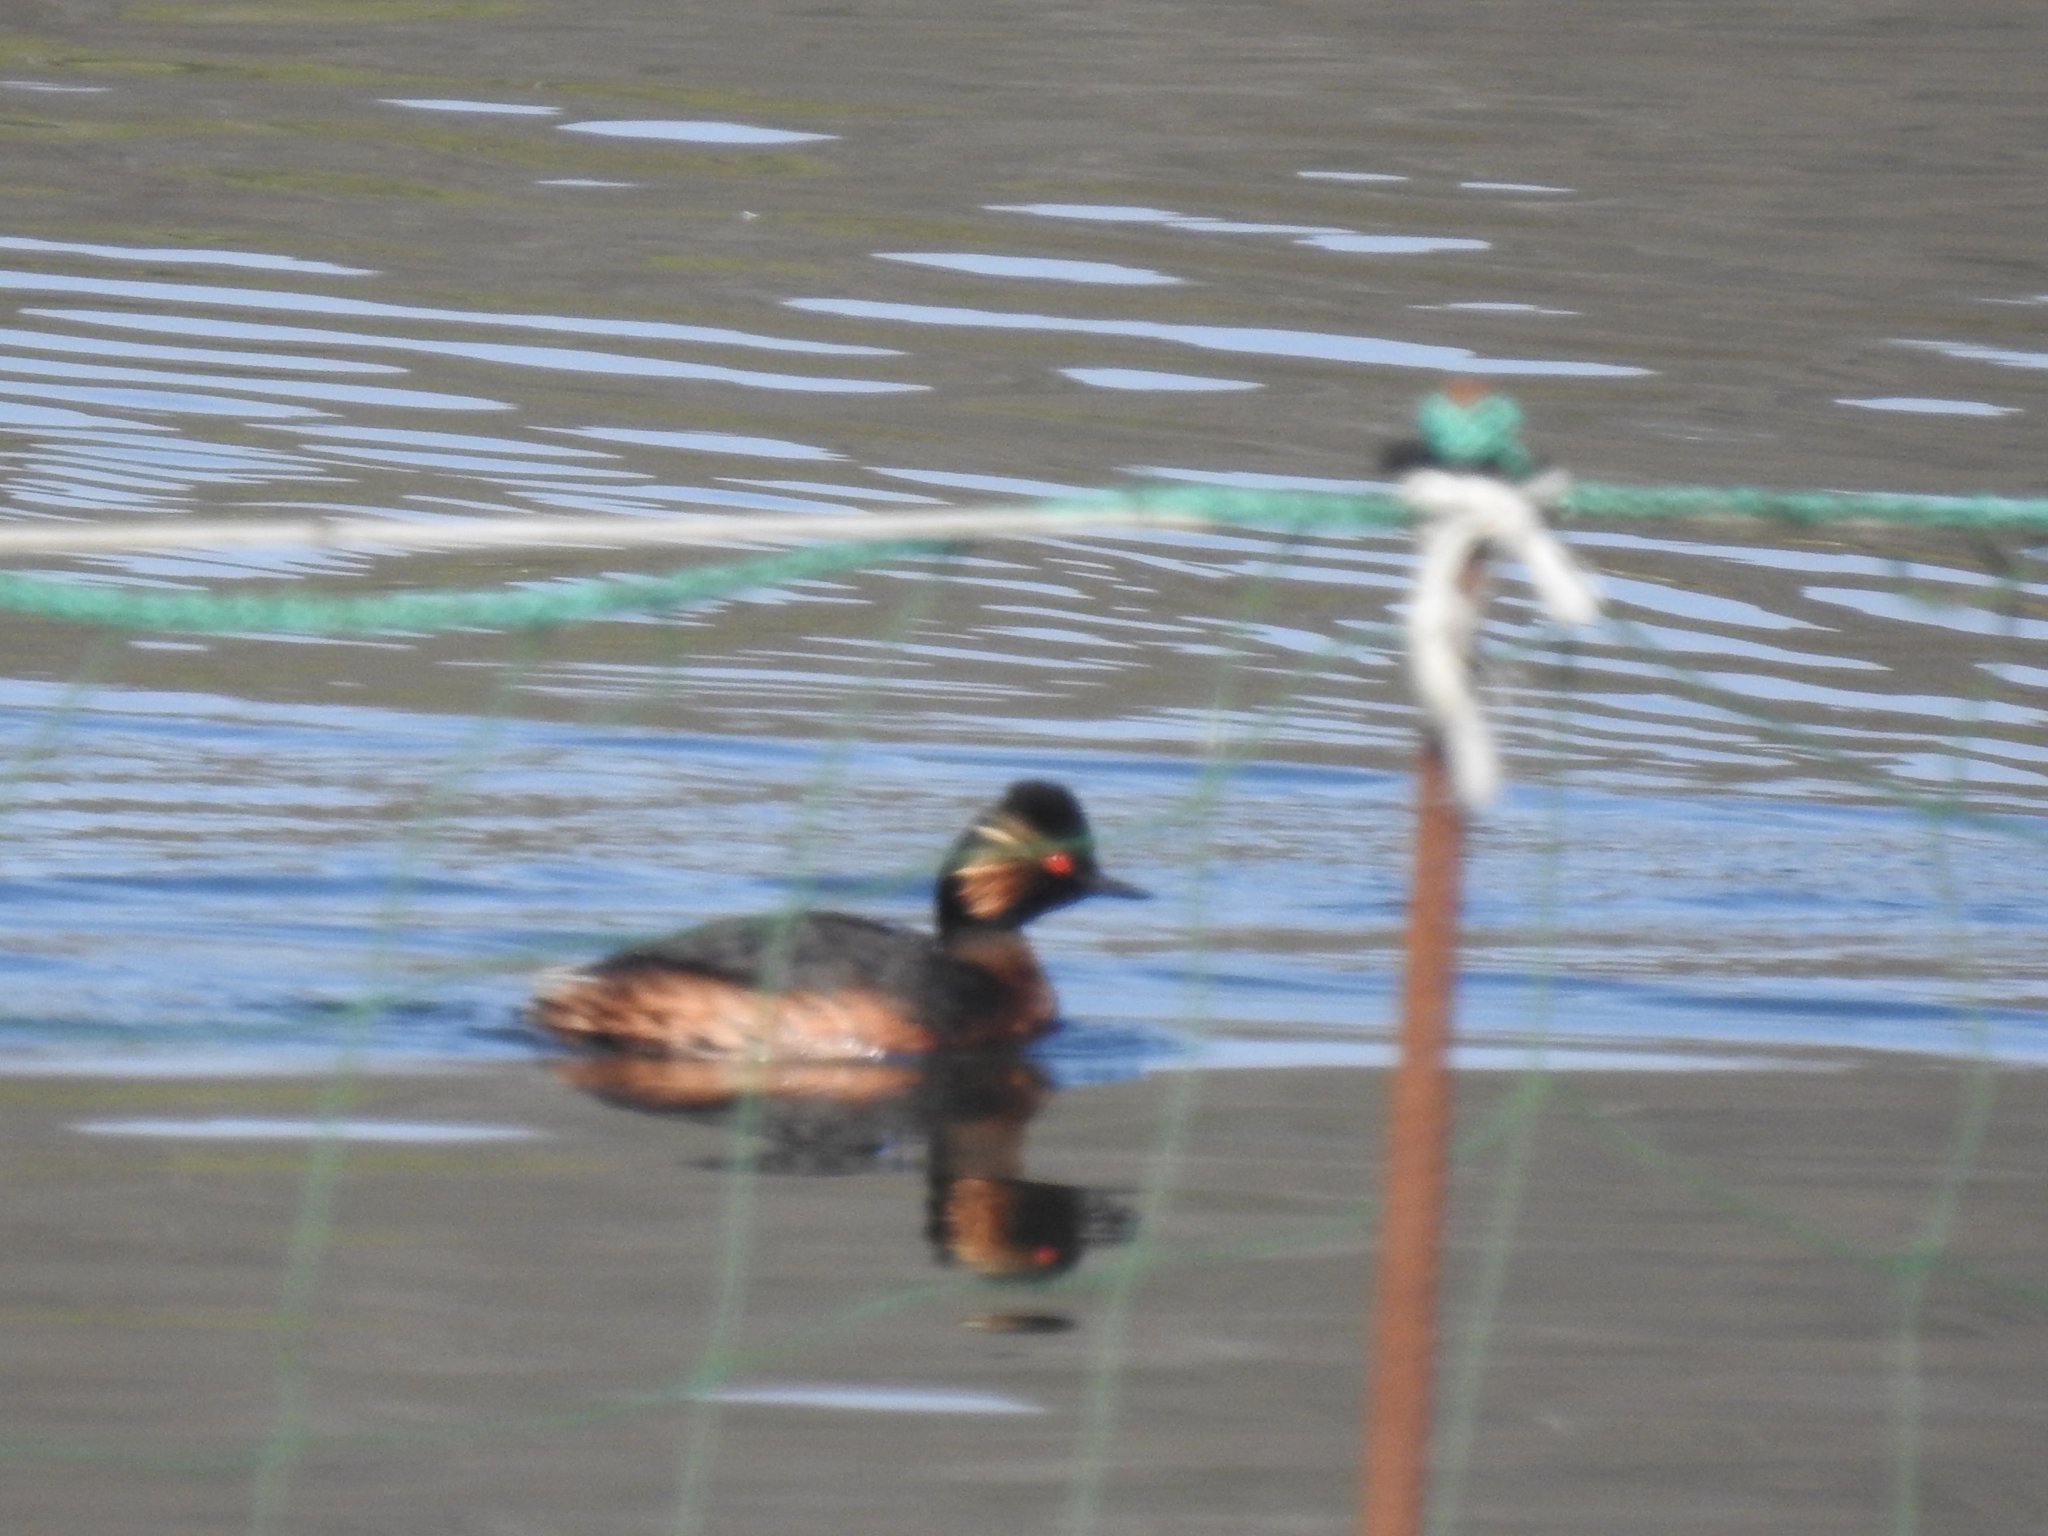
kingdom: Animalia
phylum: Chordata
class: Aves
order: Podicipediformes
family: Podicipedidae
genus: Podiceps
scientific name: Podiceps nigricollis
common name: Black-necked grebe
